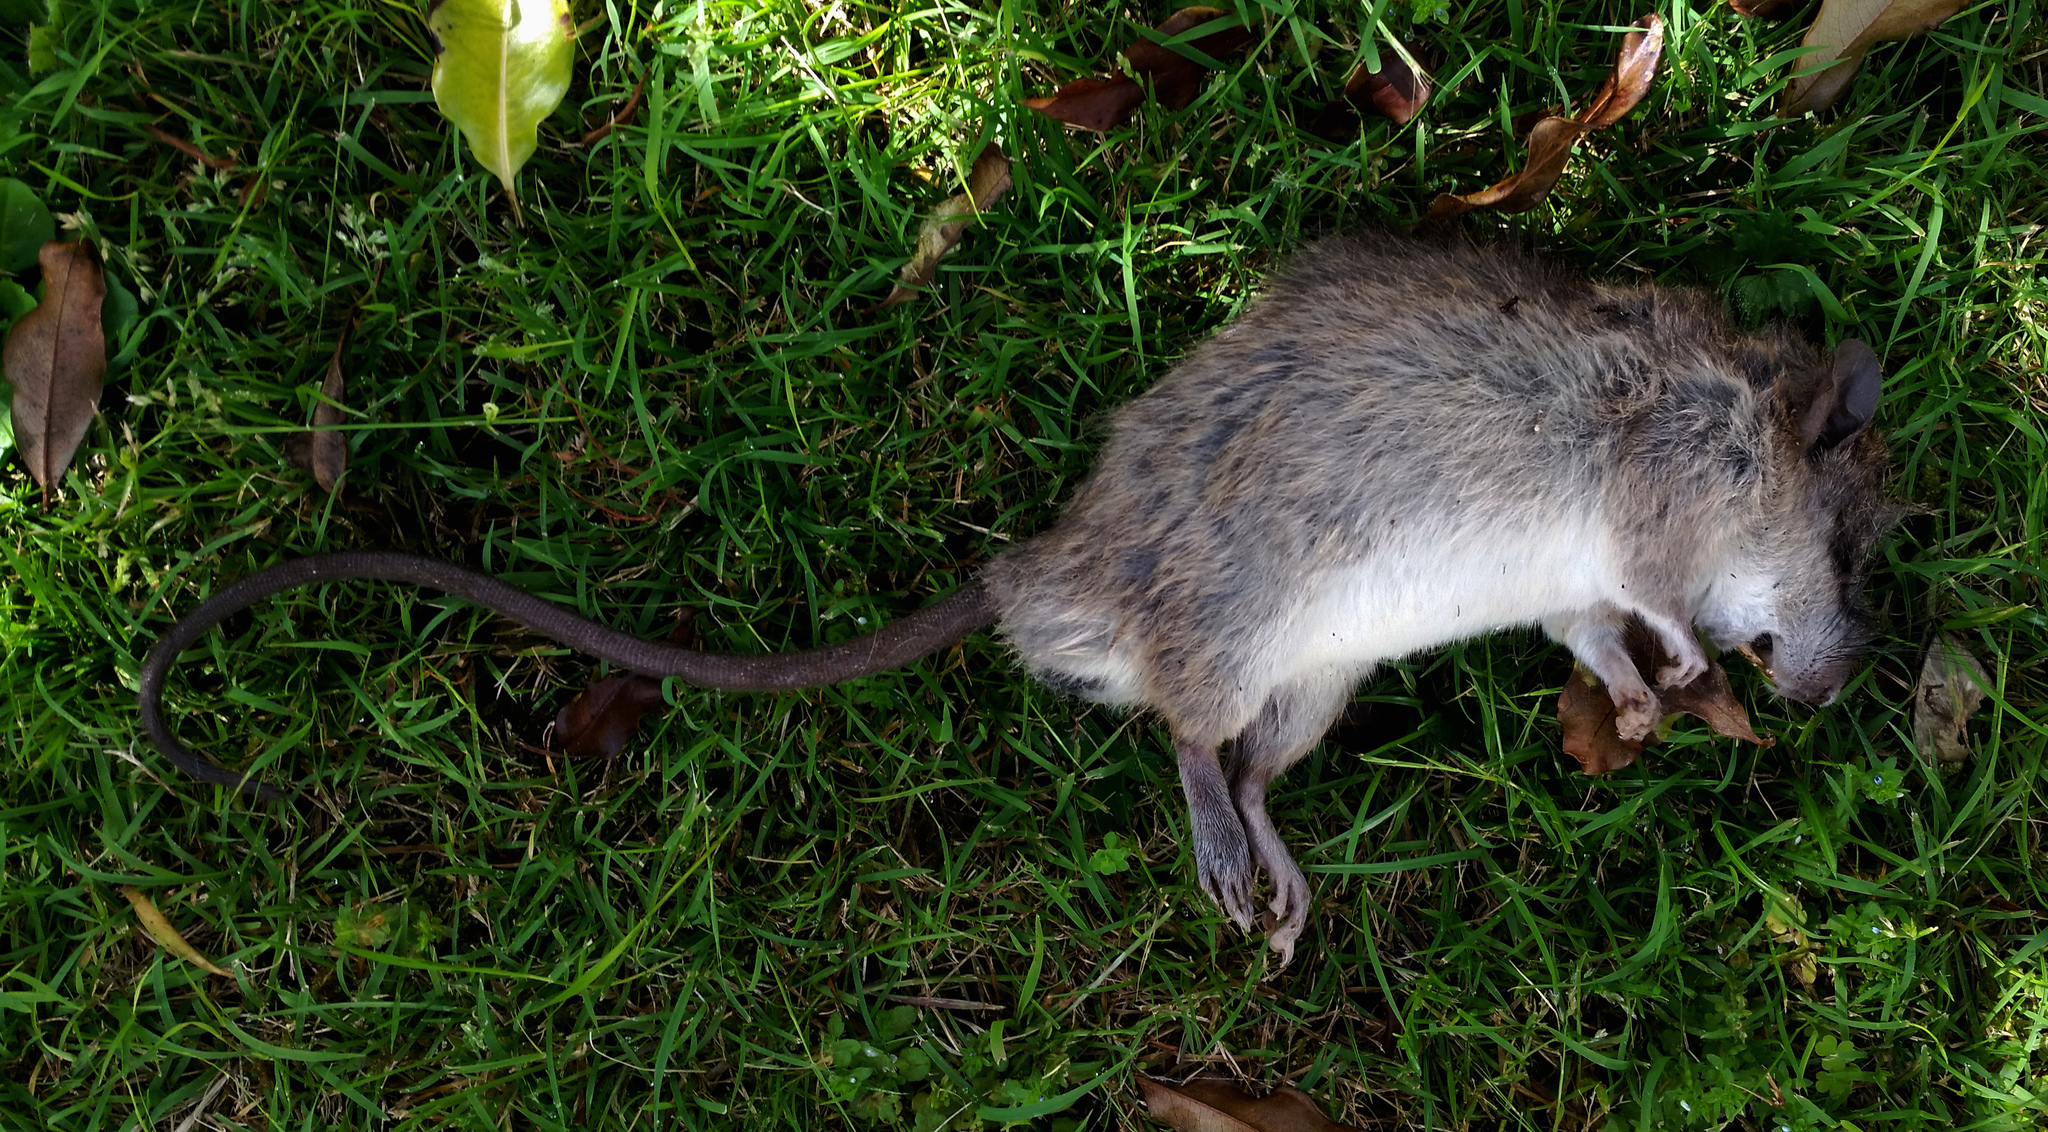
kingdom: Animalia
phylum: Chordata
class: Mammalia
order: Rodentia
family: Muridae
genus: Rattus
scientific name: Rattus rattus
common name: Black rat
